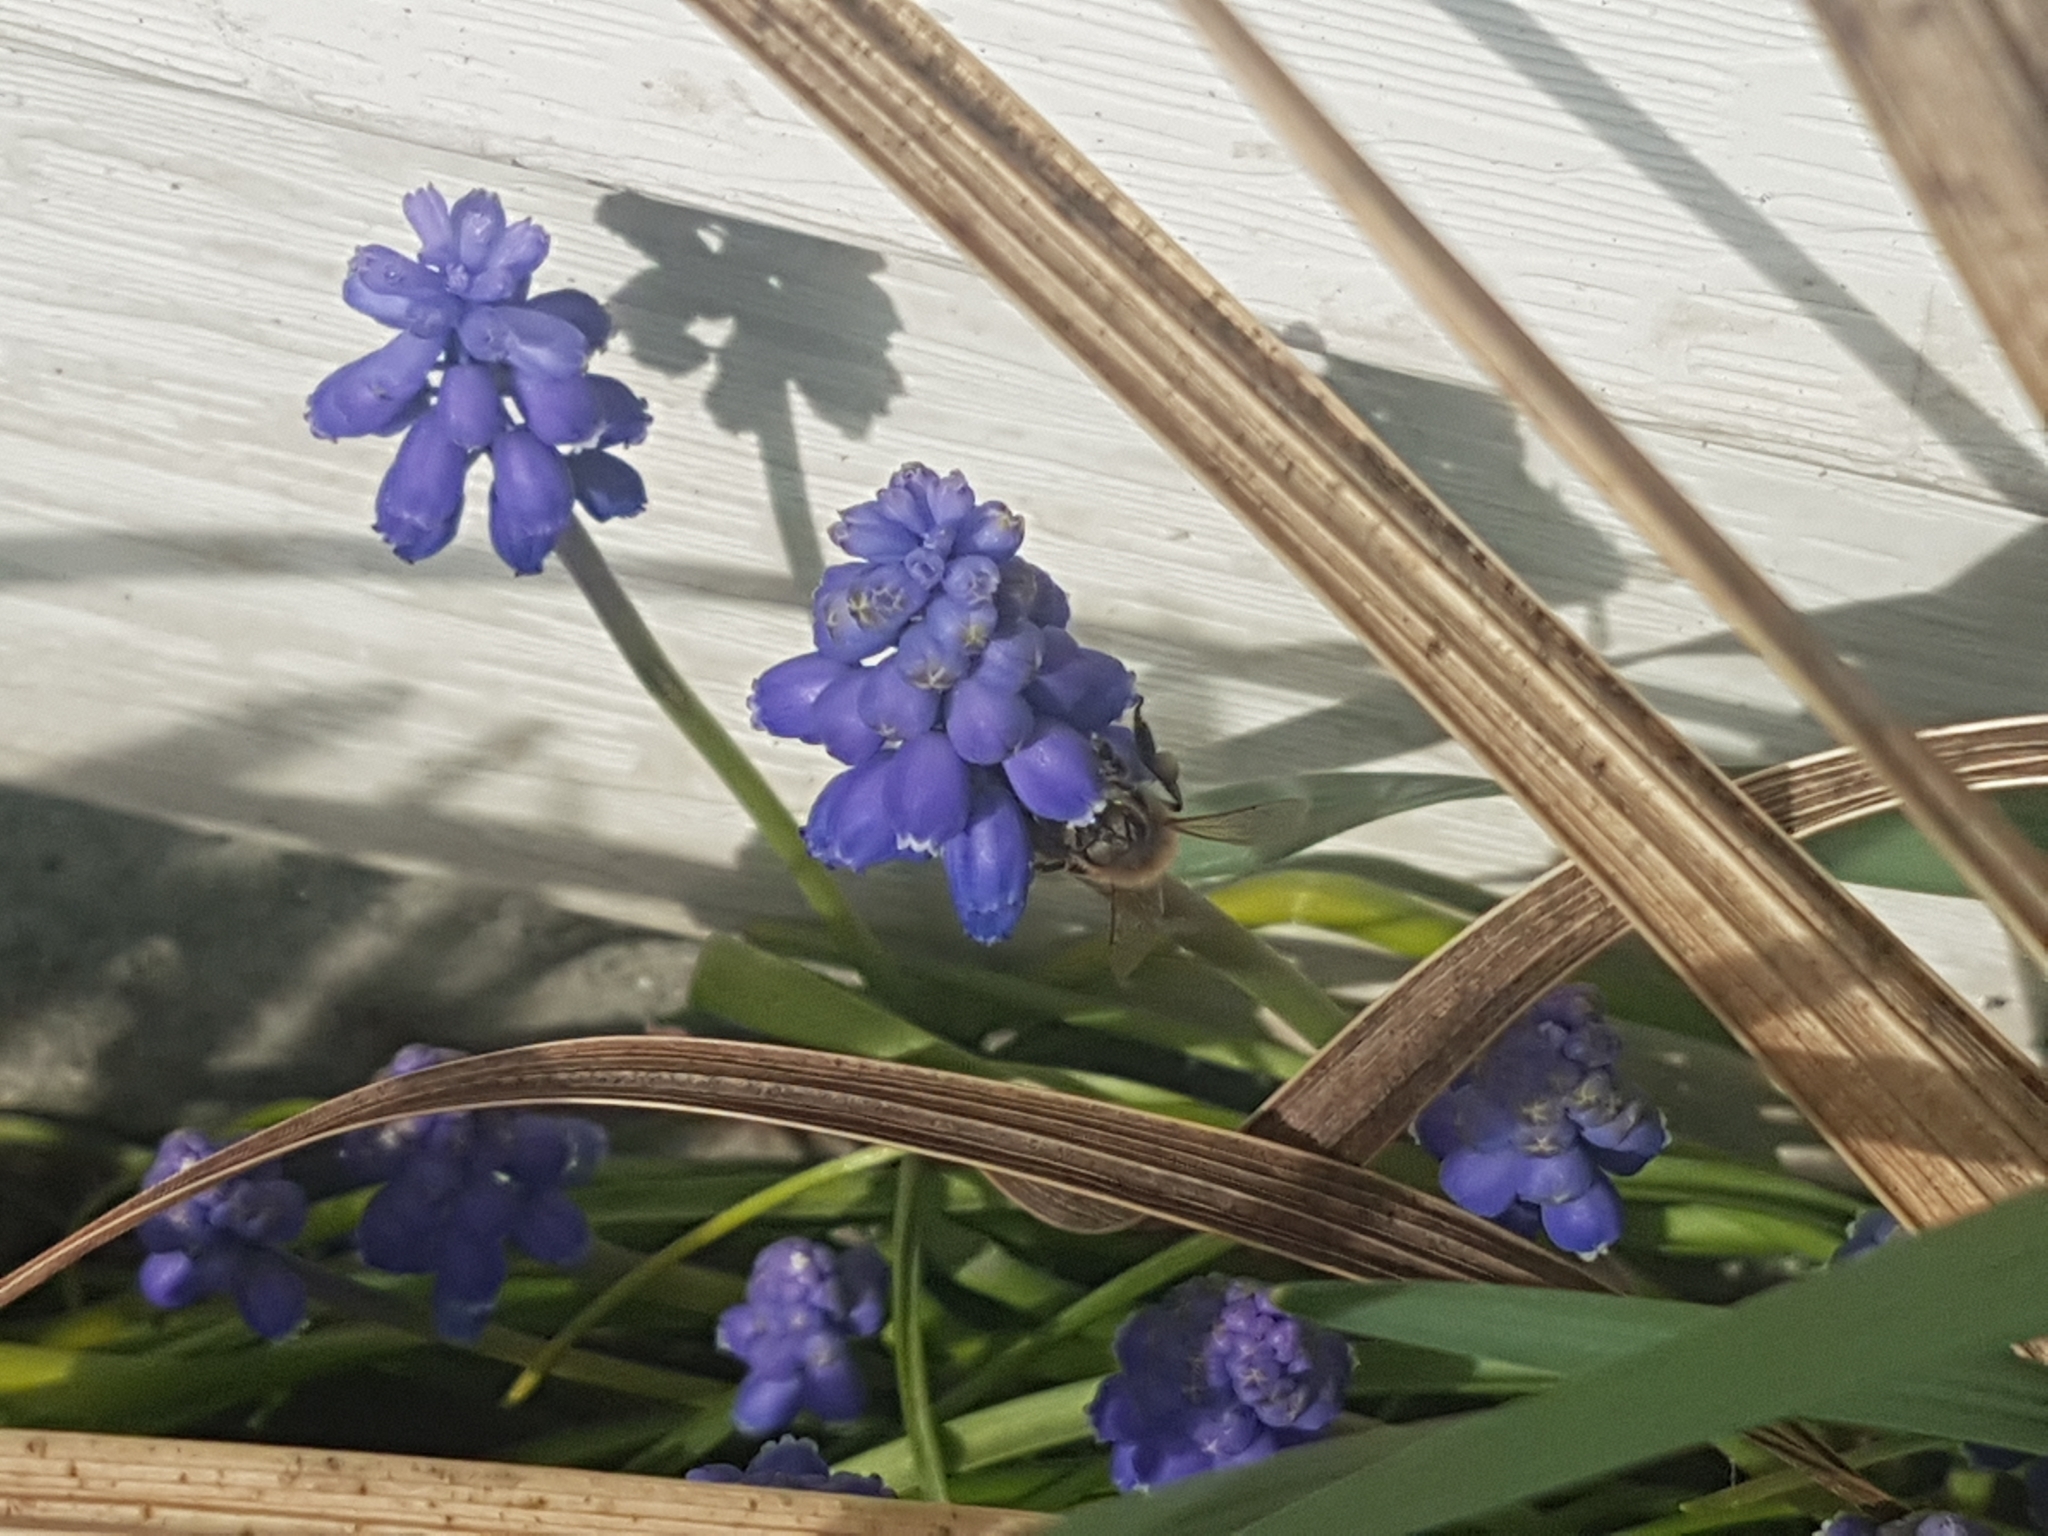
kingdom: Animalia
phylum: Arthropoda
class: Insecta
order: Hymenoptera
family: Apidae
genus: Apis
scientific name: Apis mellifera
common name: Honey bee
